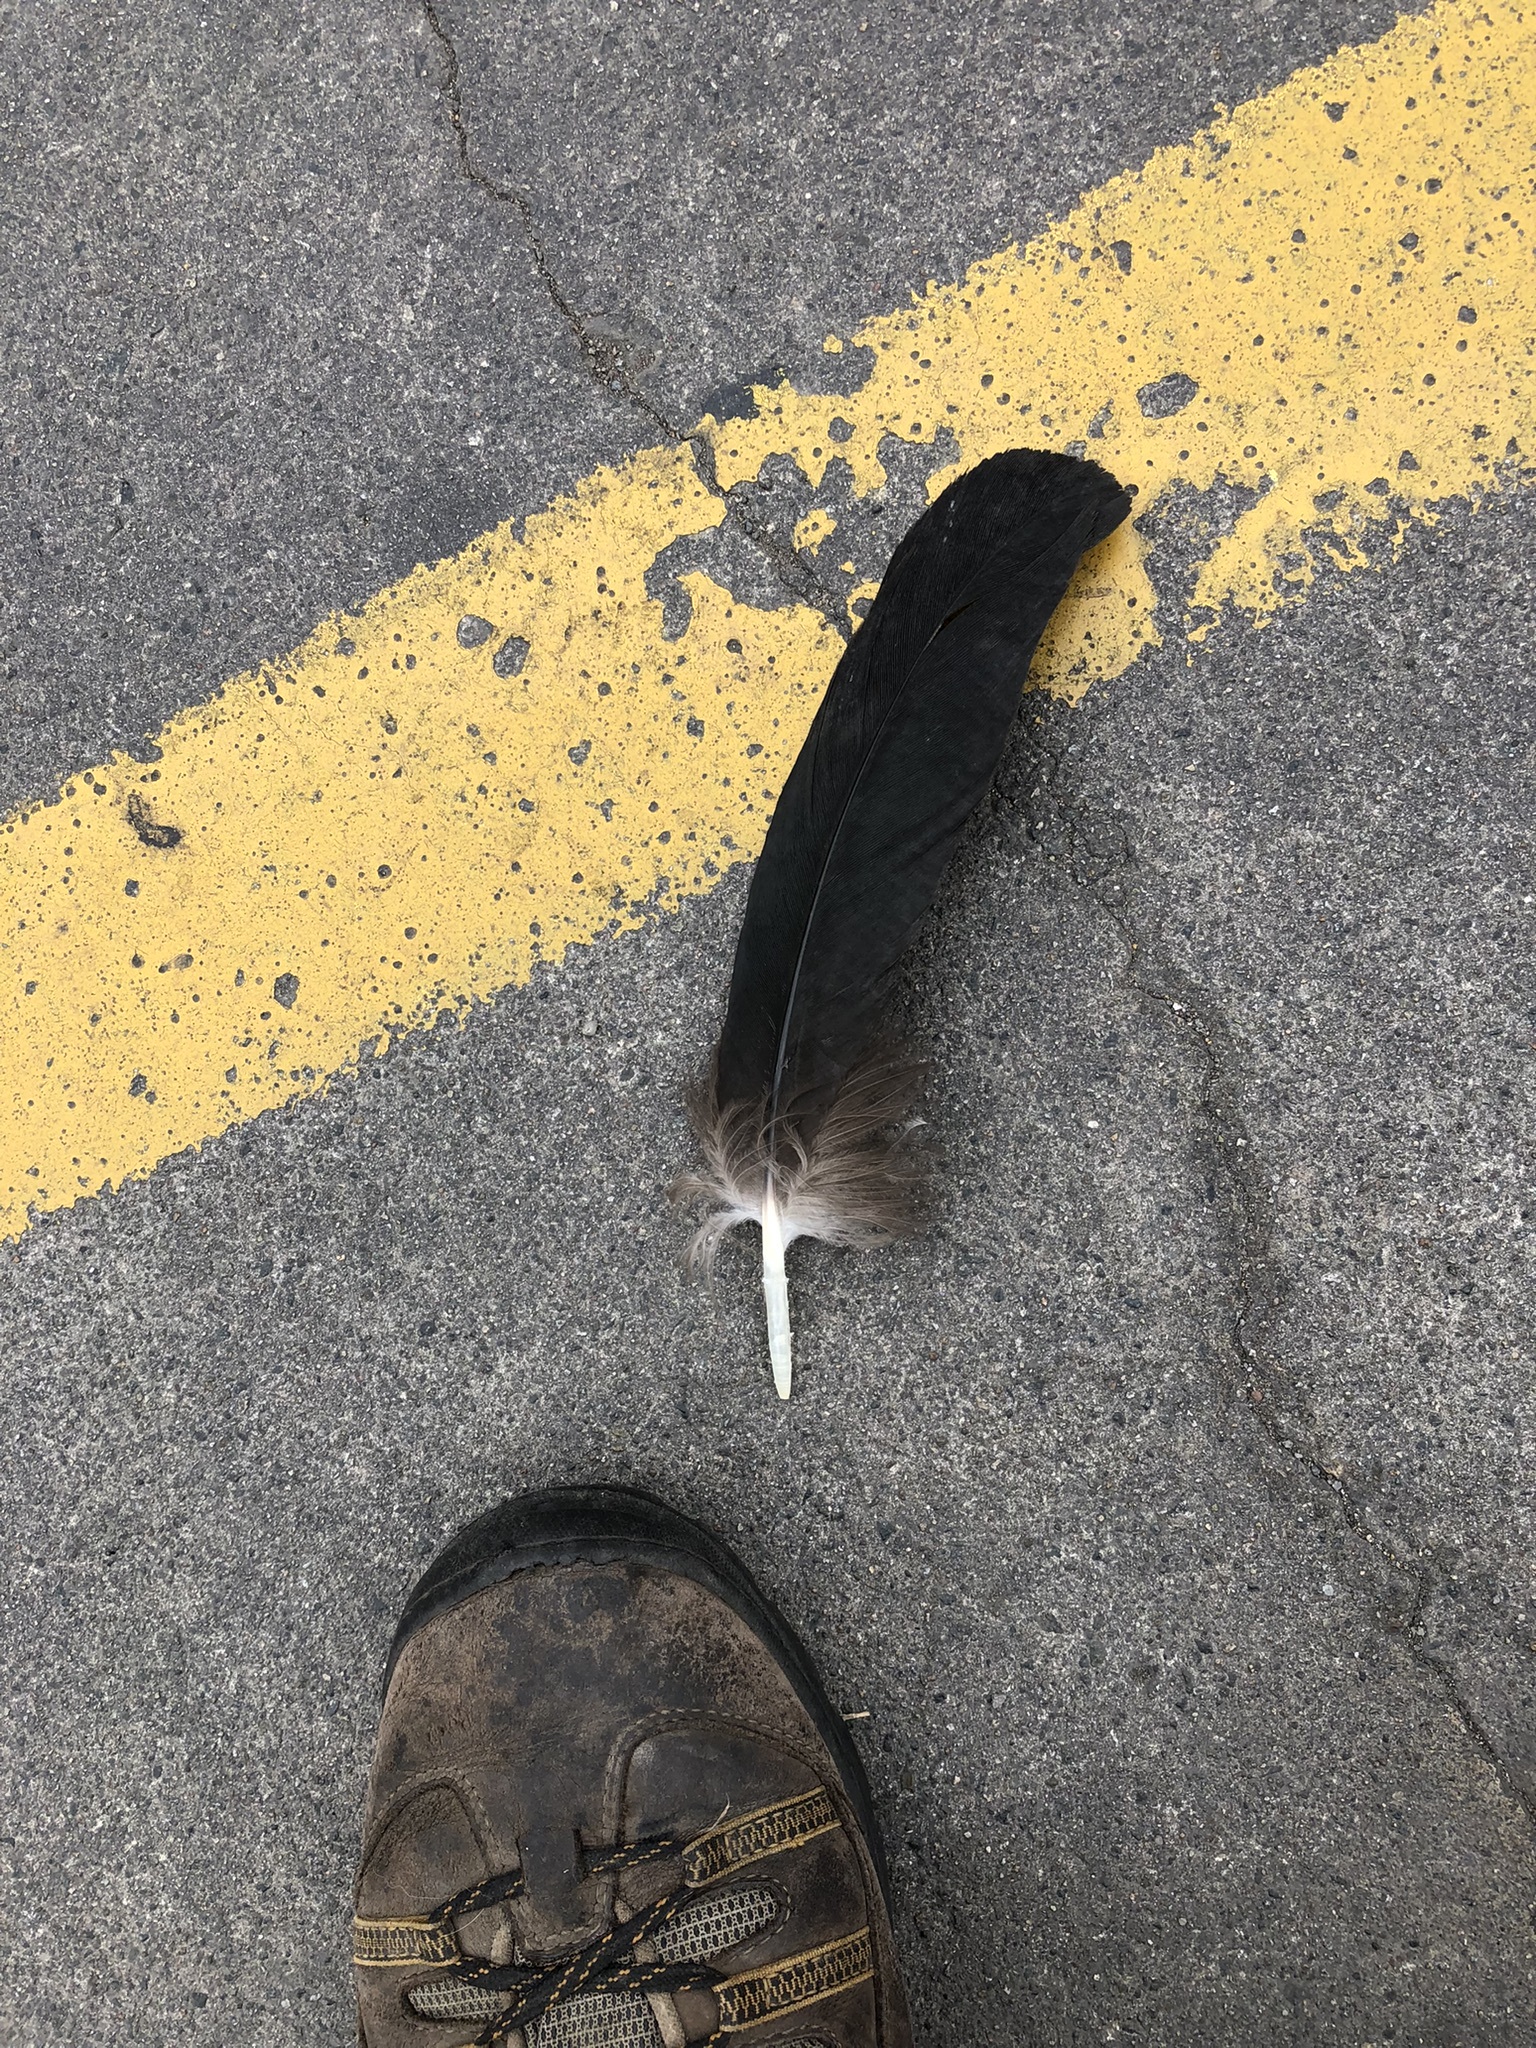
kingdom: Animalia
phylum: Chordata
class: Aves
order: Accipitriformes
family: Cathartidae
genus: Coragyps
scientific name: Coragyps atratus
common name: Black vulture
